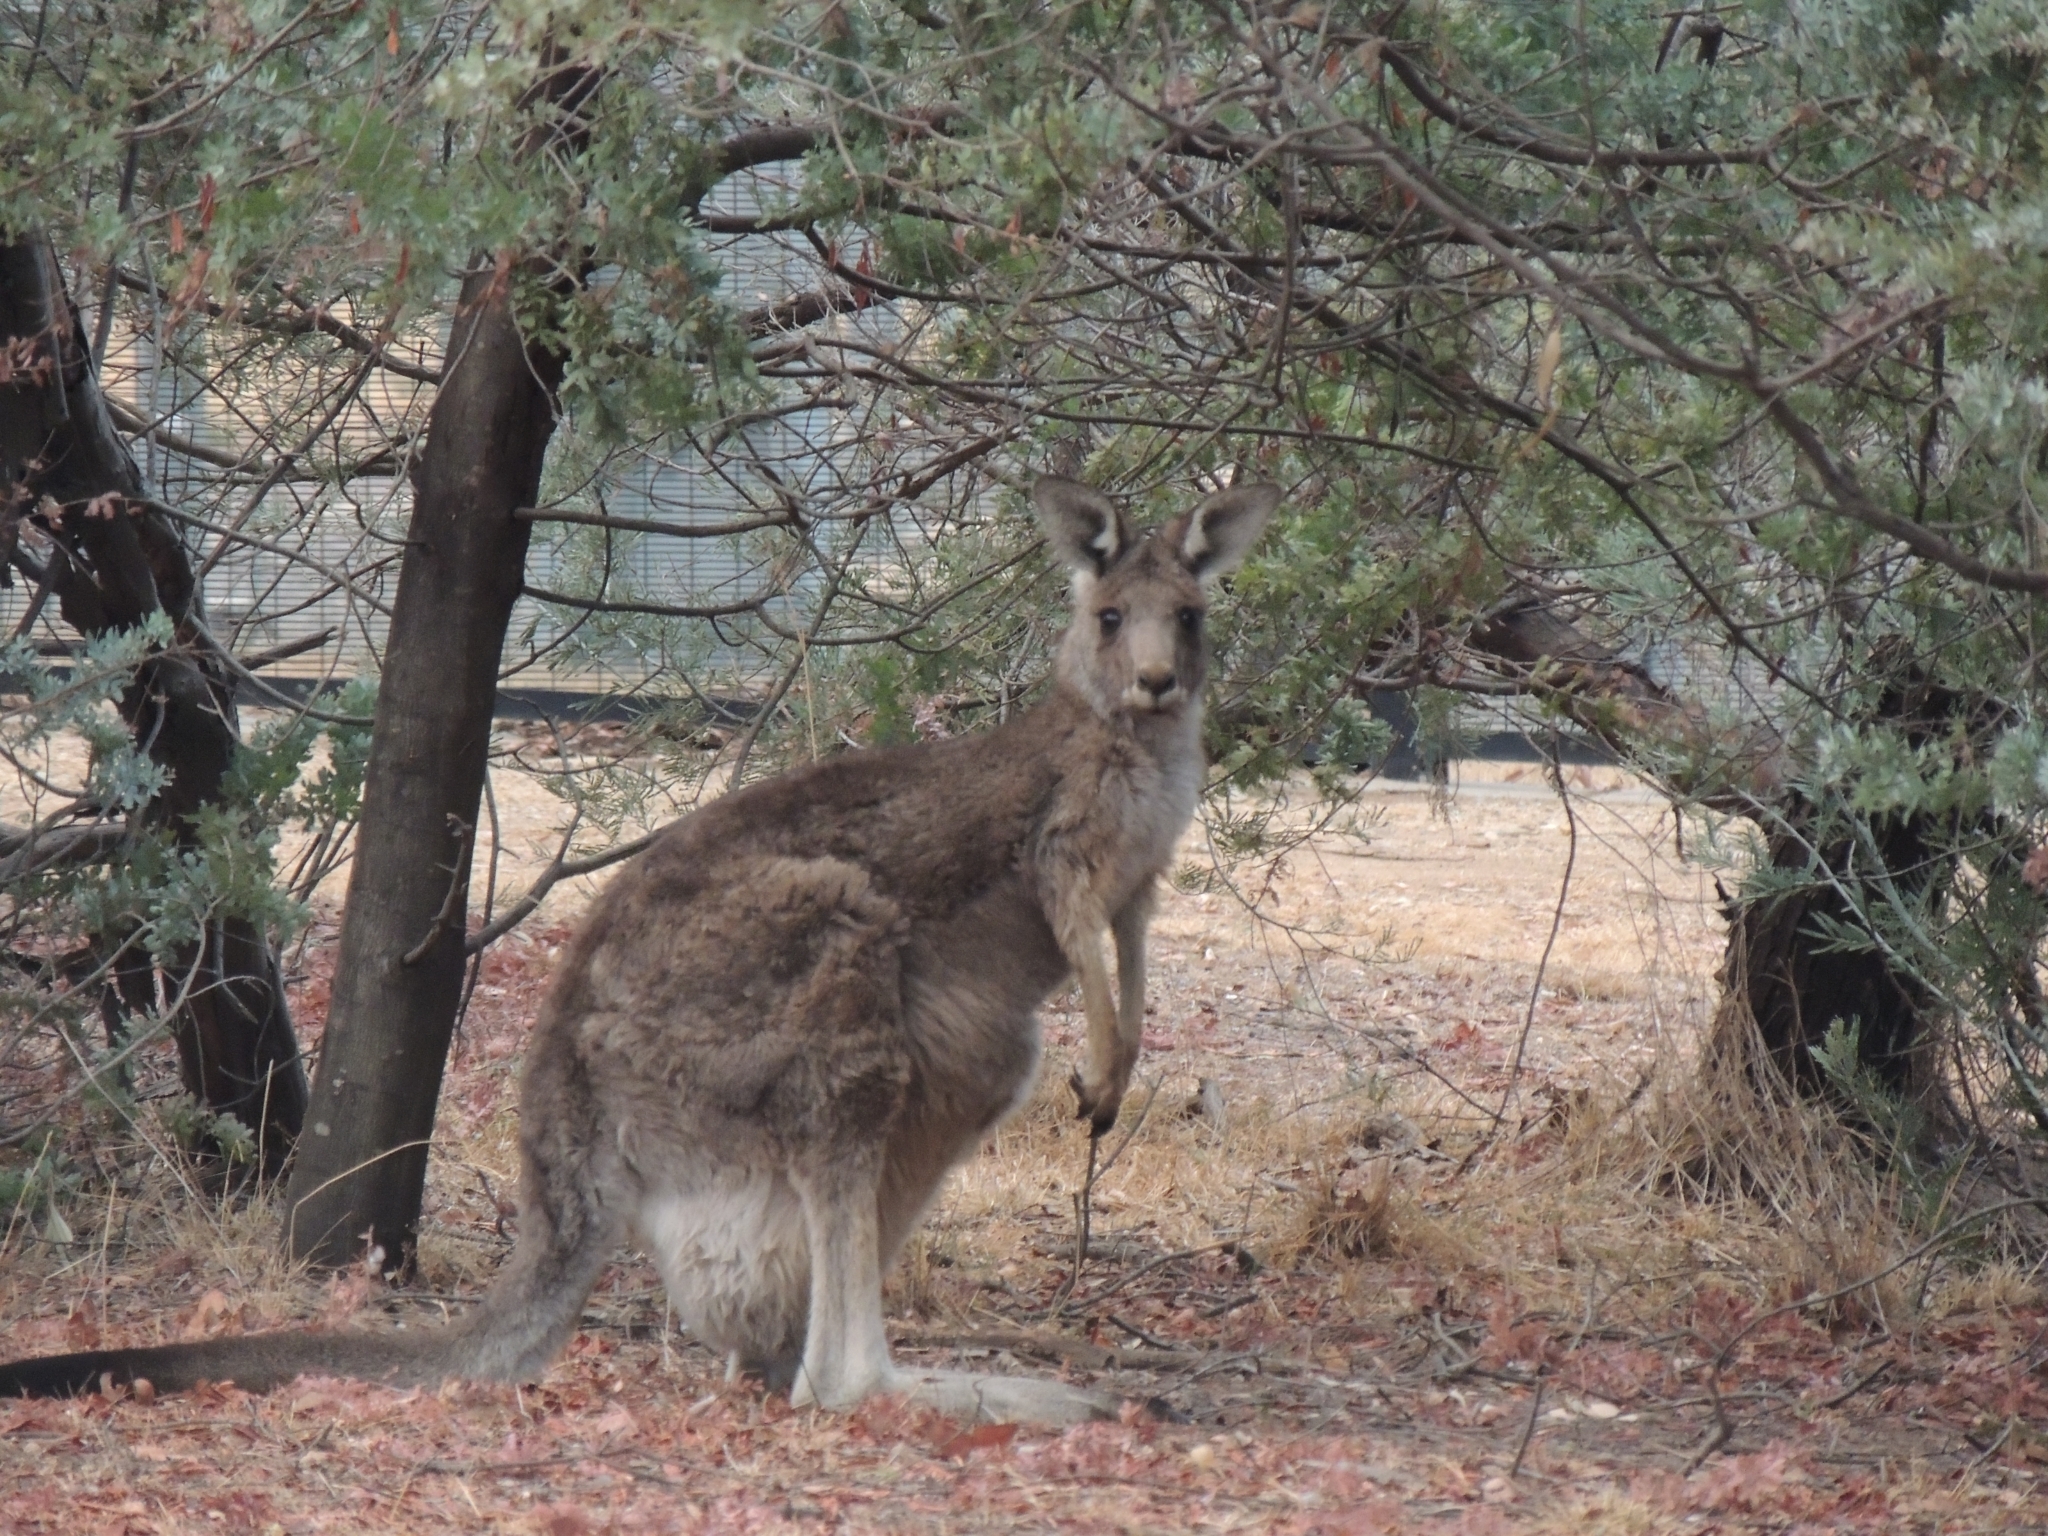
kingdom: Animalia
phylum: Chordata
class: Mammalia
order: Diprotodontia
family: Macropodidae
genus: Macropus
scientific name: Macropus giganteus
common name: Eastern grey kangaroo
